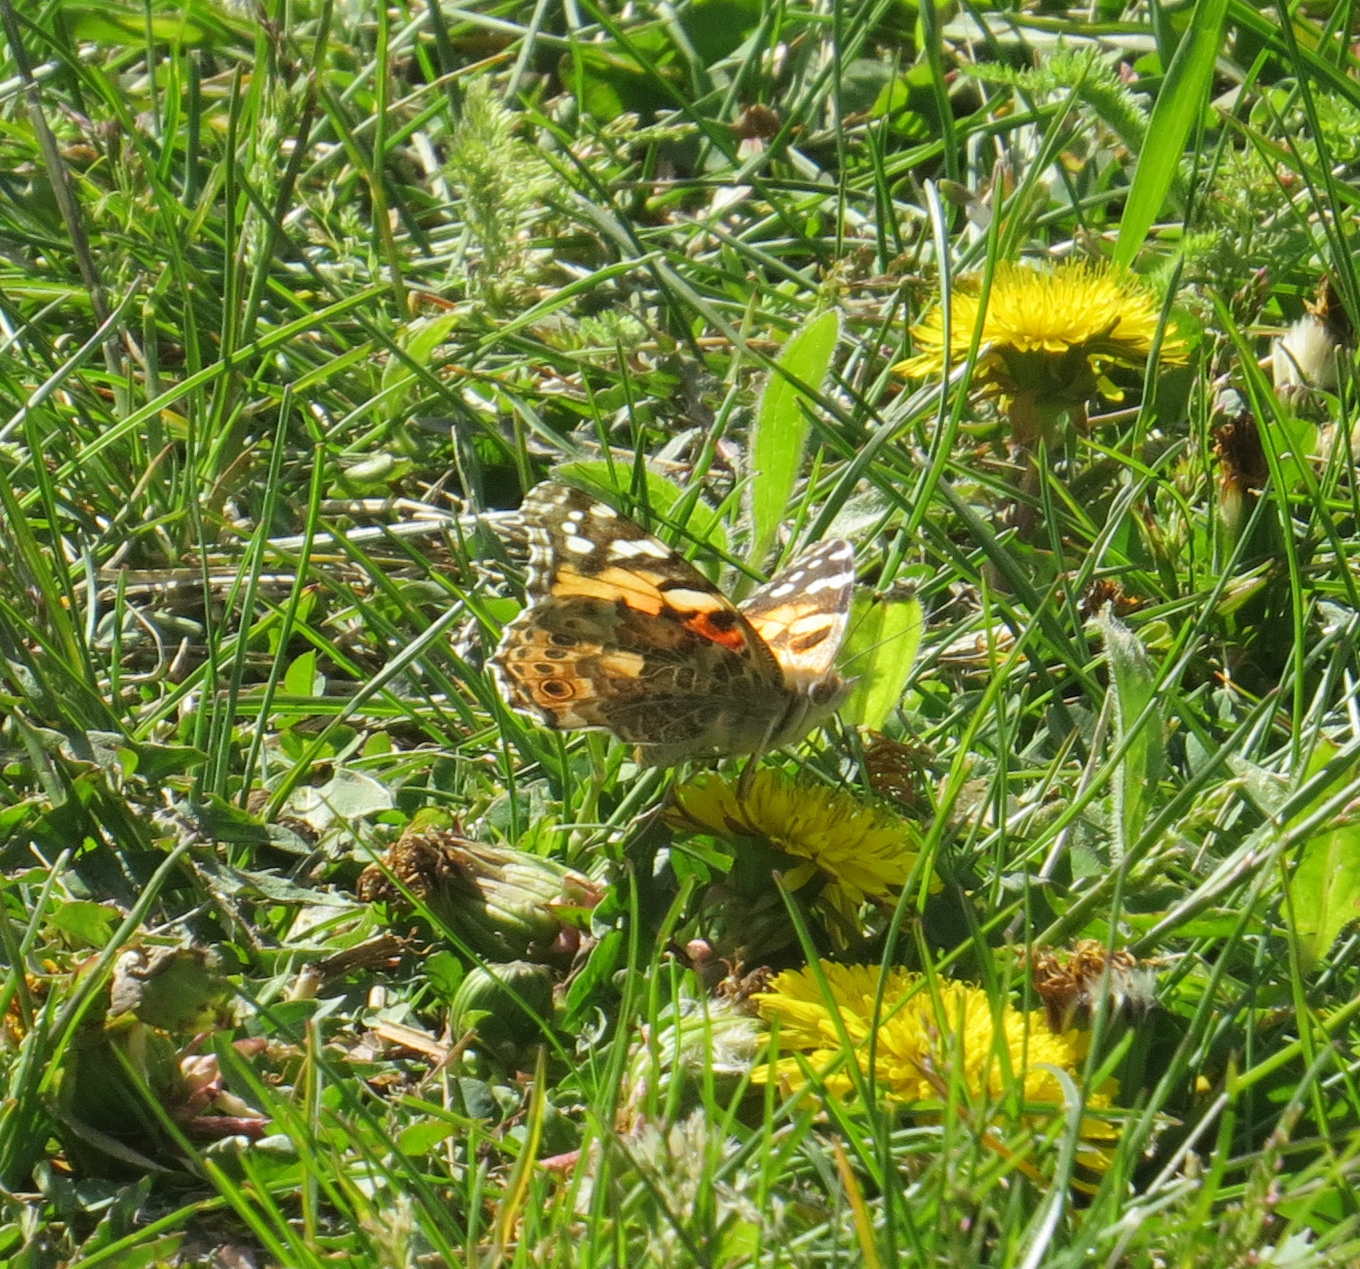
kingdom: Animalia
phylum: Arthropoda
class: Insecta
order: Lepidoptera
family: Nymphalidae
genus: Vanessa
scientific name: Vanessa cardui
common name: Painted lady
